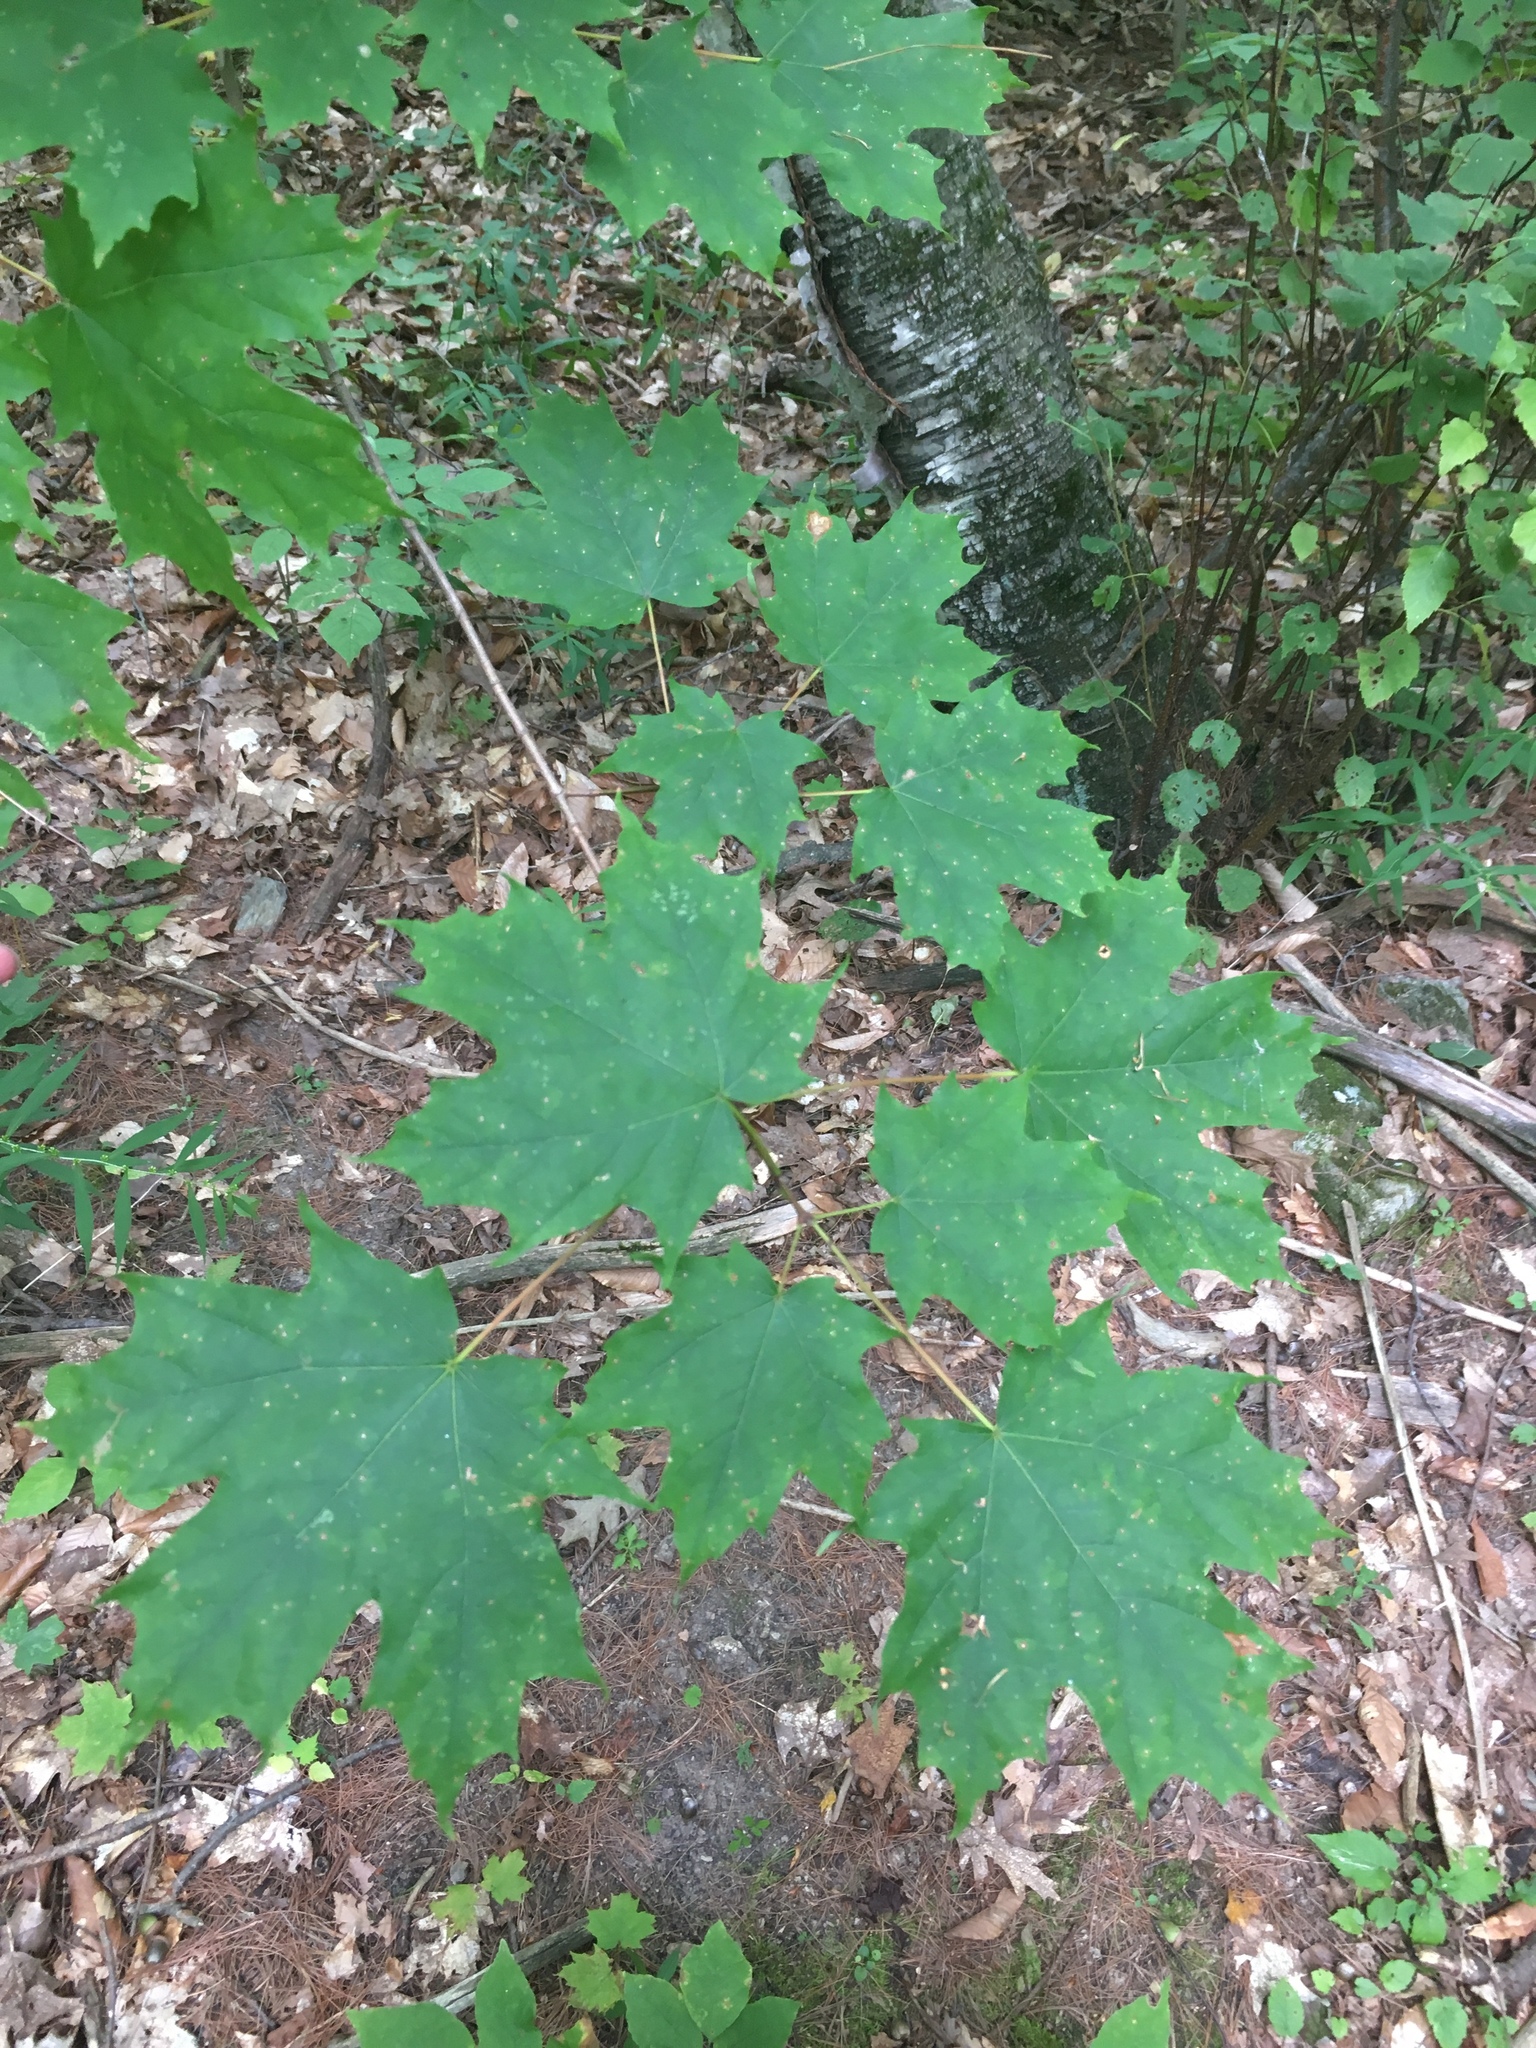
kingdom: Plantae
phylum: Tracheophyta
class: Magnoliopsida
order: Sapindales
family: Sapindaceae
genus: Acer
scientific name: Acer saccharum
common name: Sugar maple
